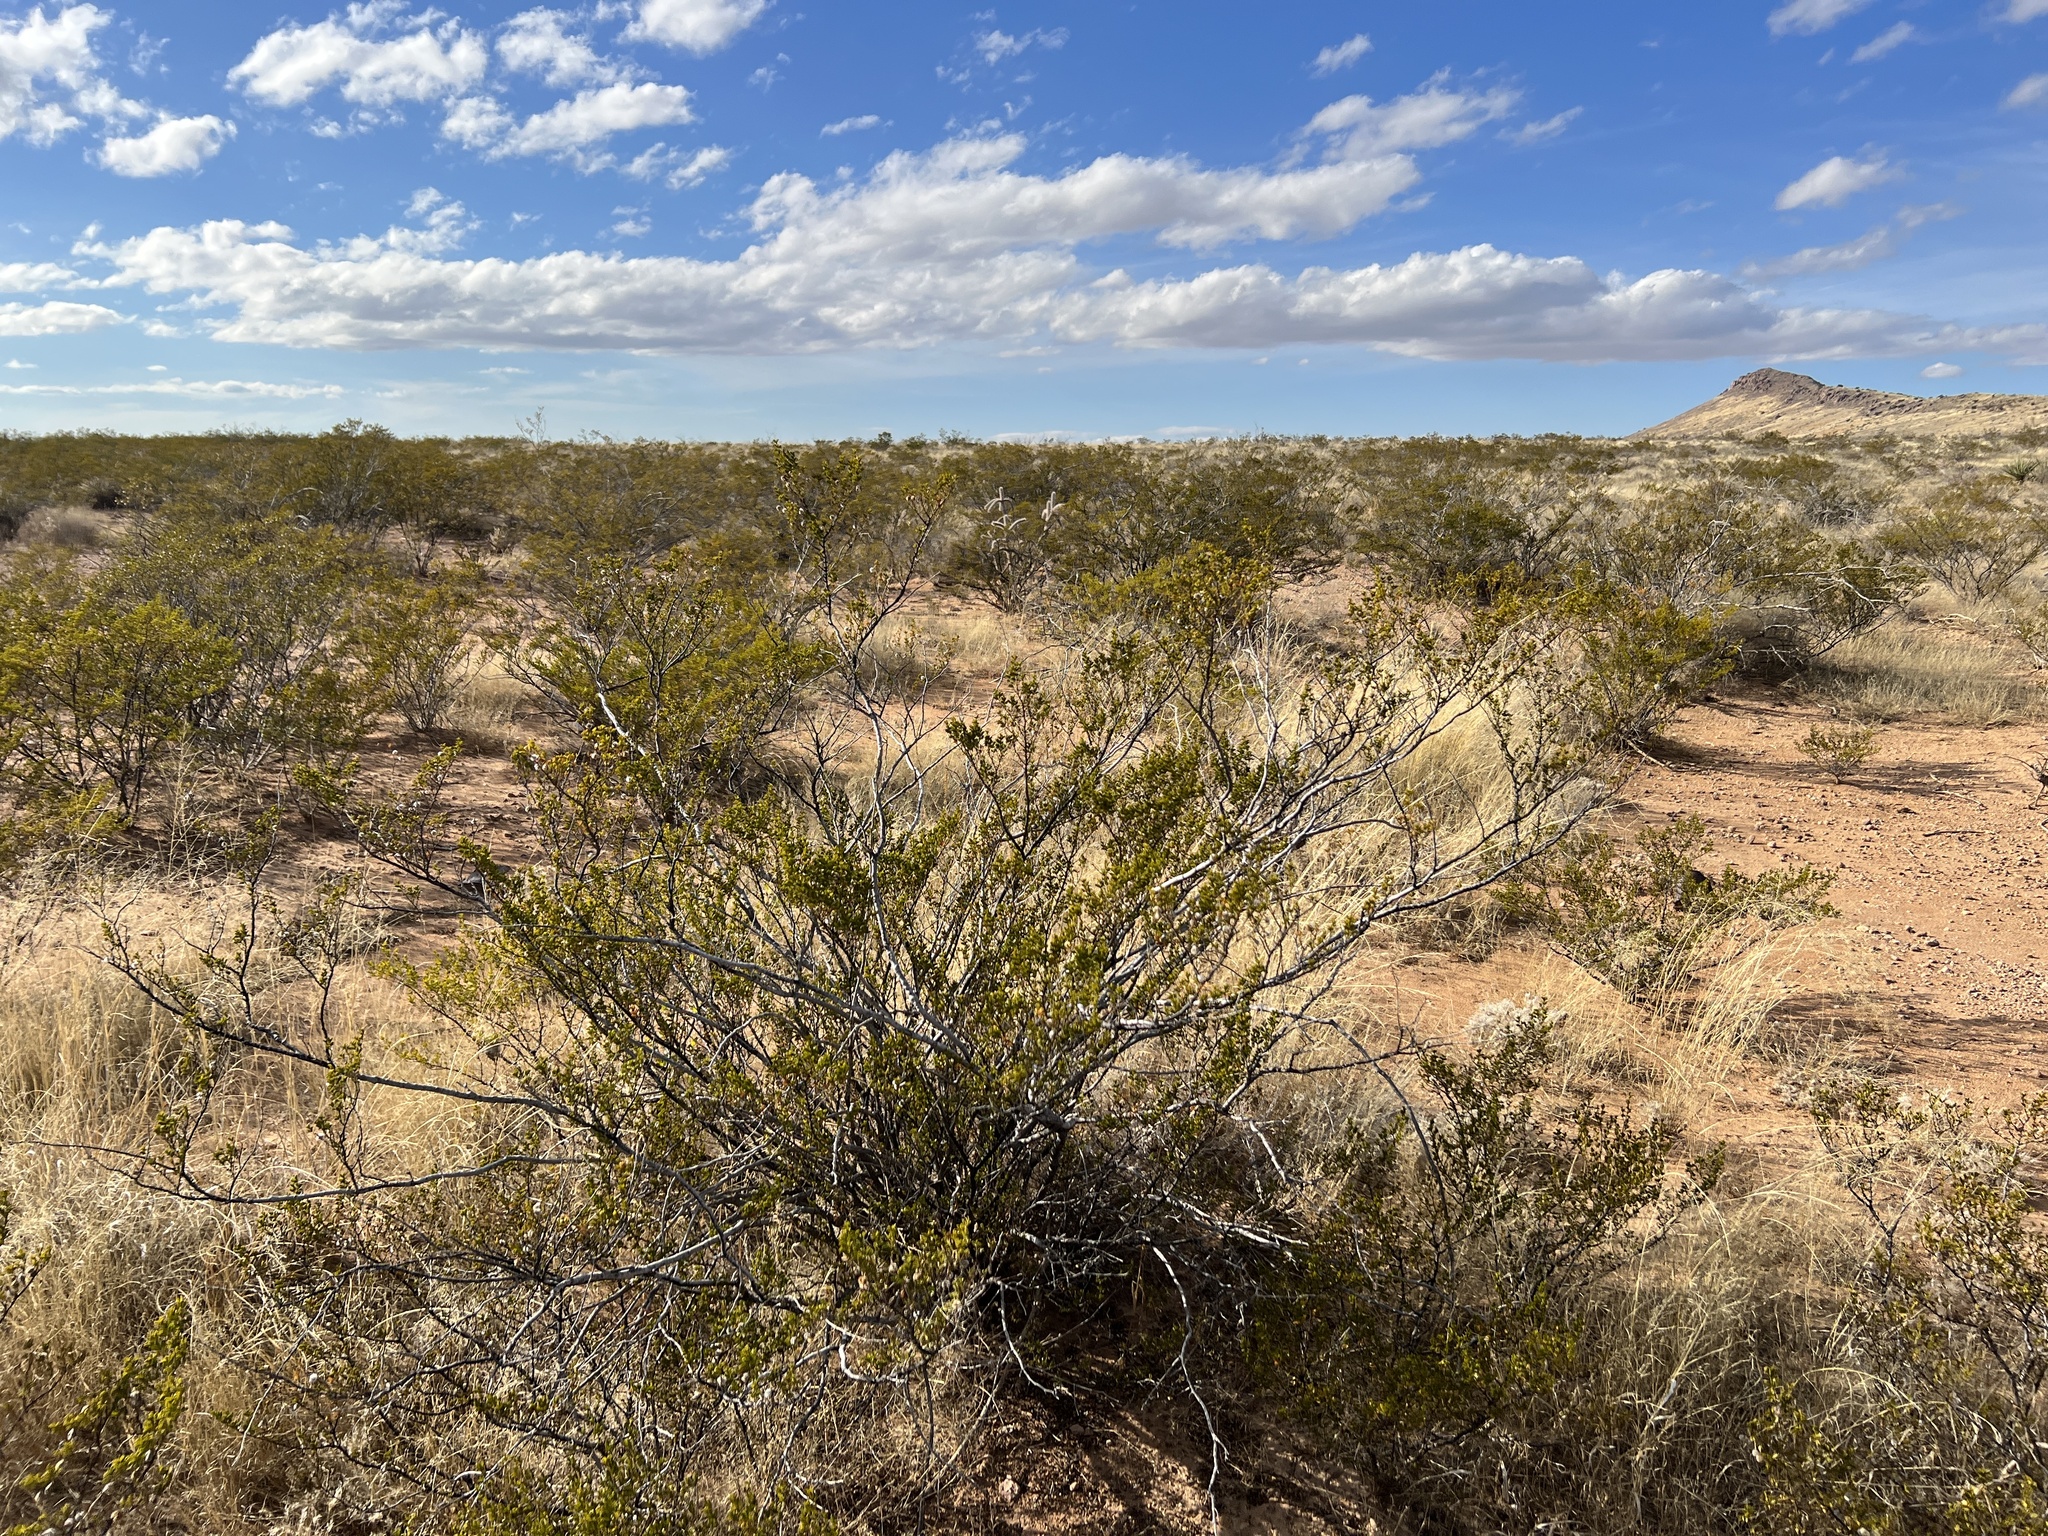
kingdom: Plantae
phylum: Tracheophyta
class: Magnoliopsida
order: Zygophyllales
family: Zygophyllaceae
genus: Larrea
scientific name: Larrea tridentata
